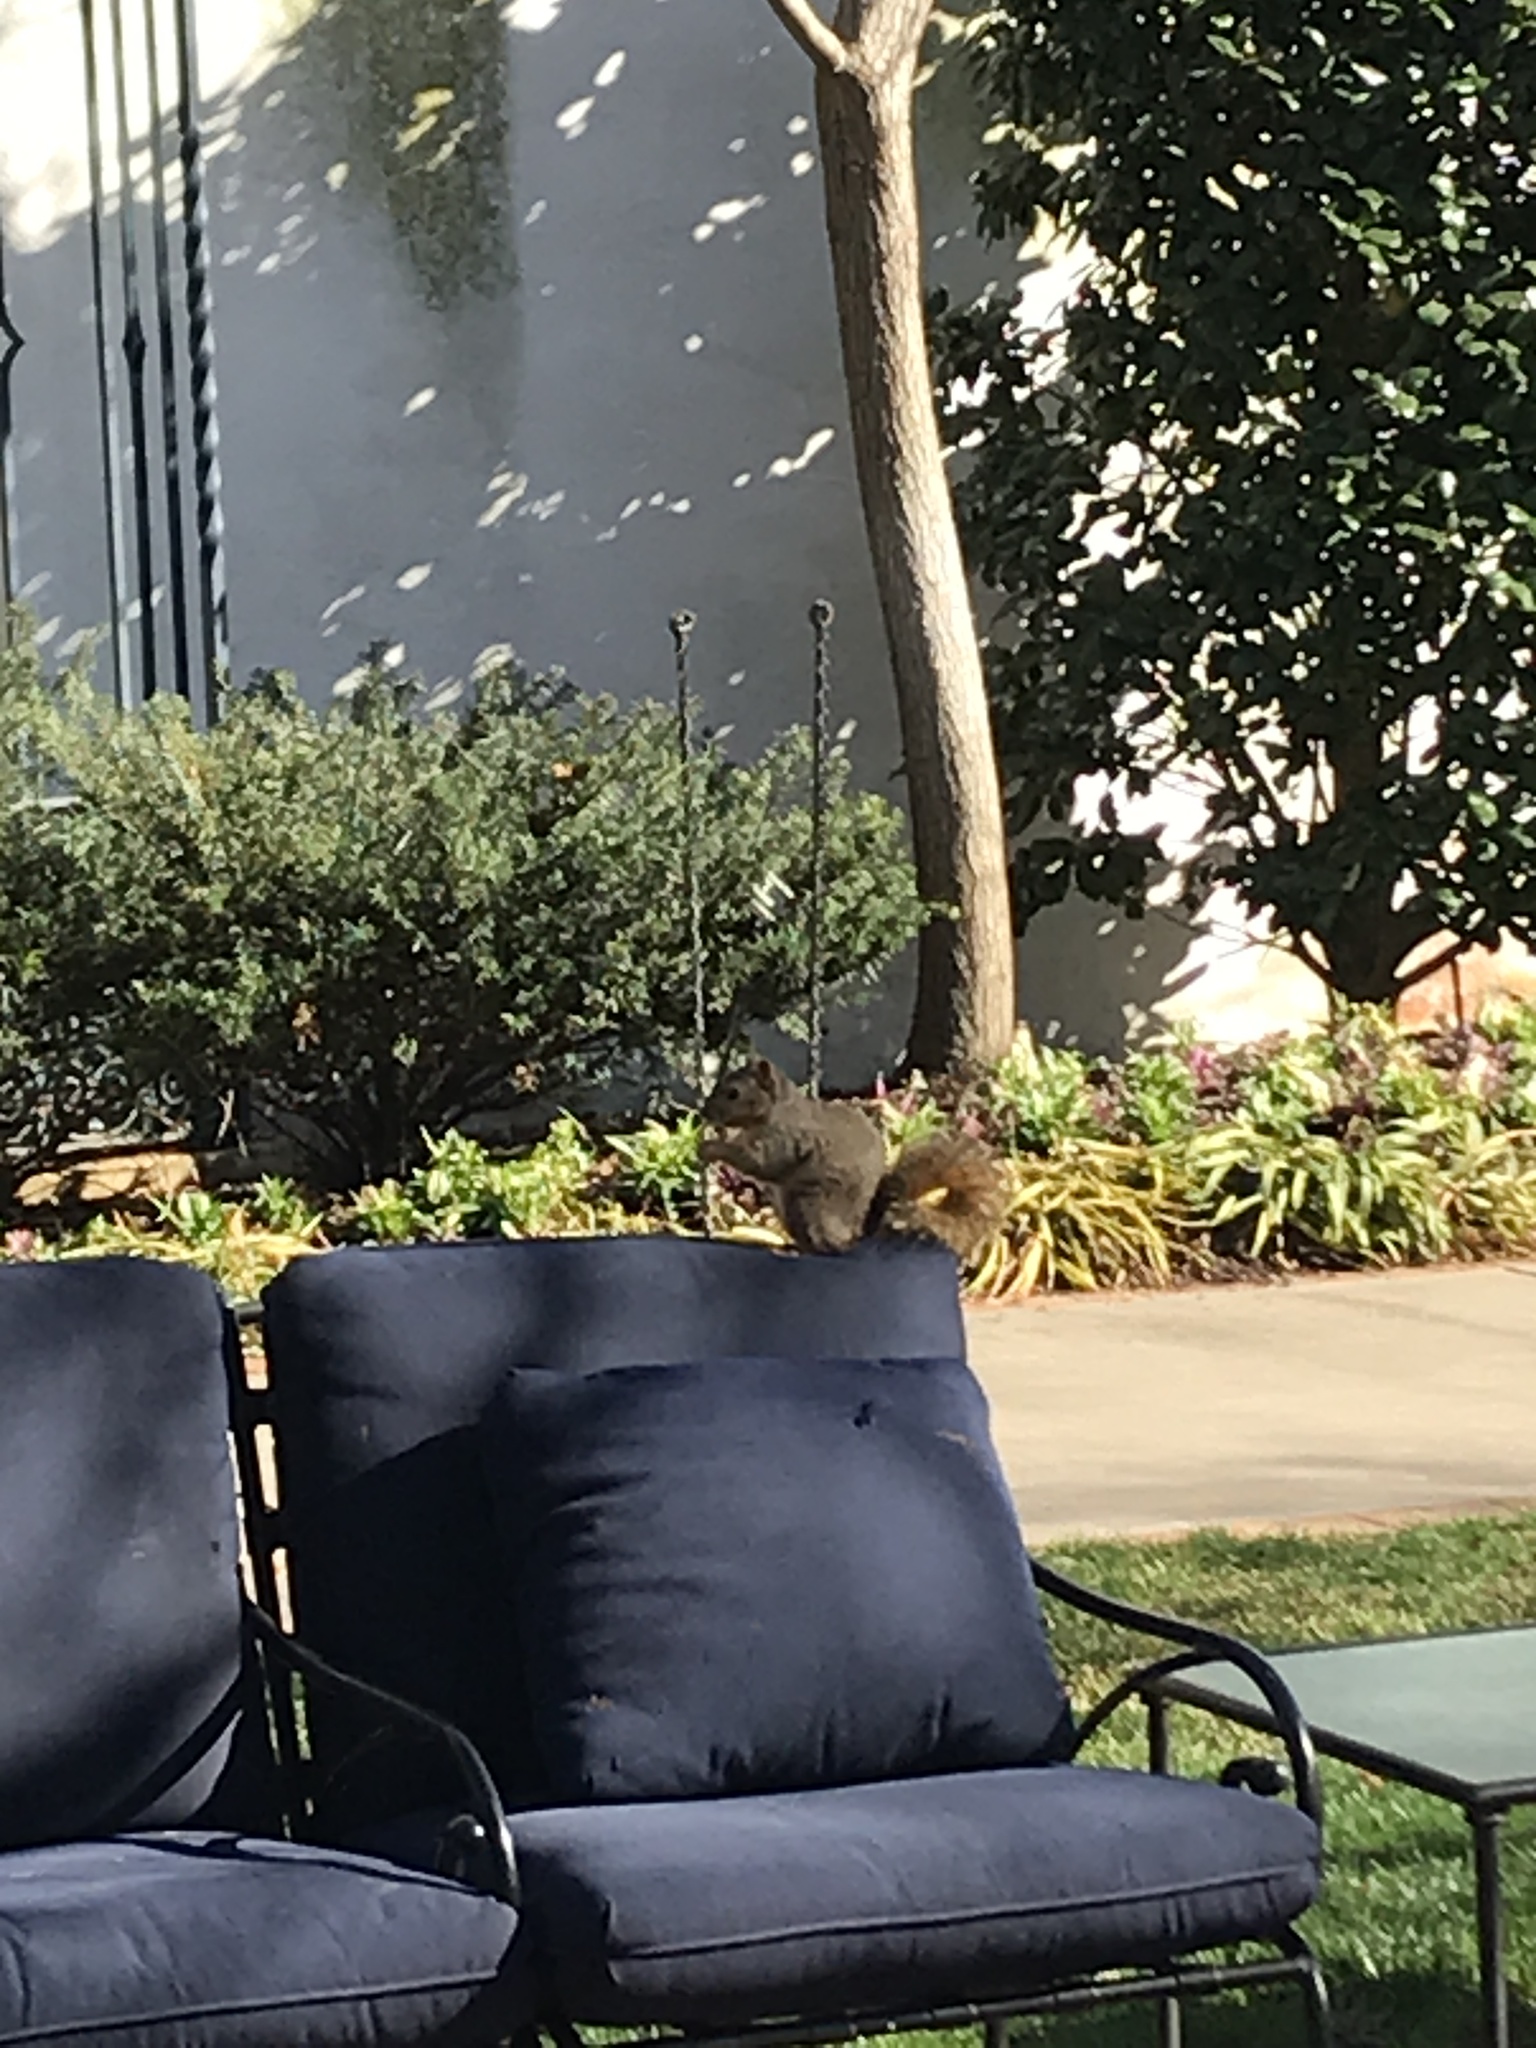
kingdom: Animalia
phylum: Chordata
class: Mammalia
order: Rodentia
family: Sciuridae
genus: Sciurus
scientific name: Sciurus niger
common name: Fox squirrel
